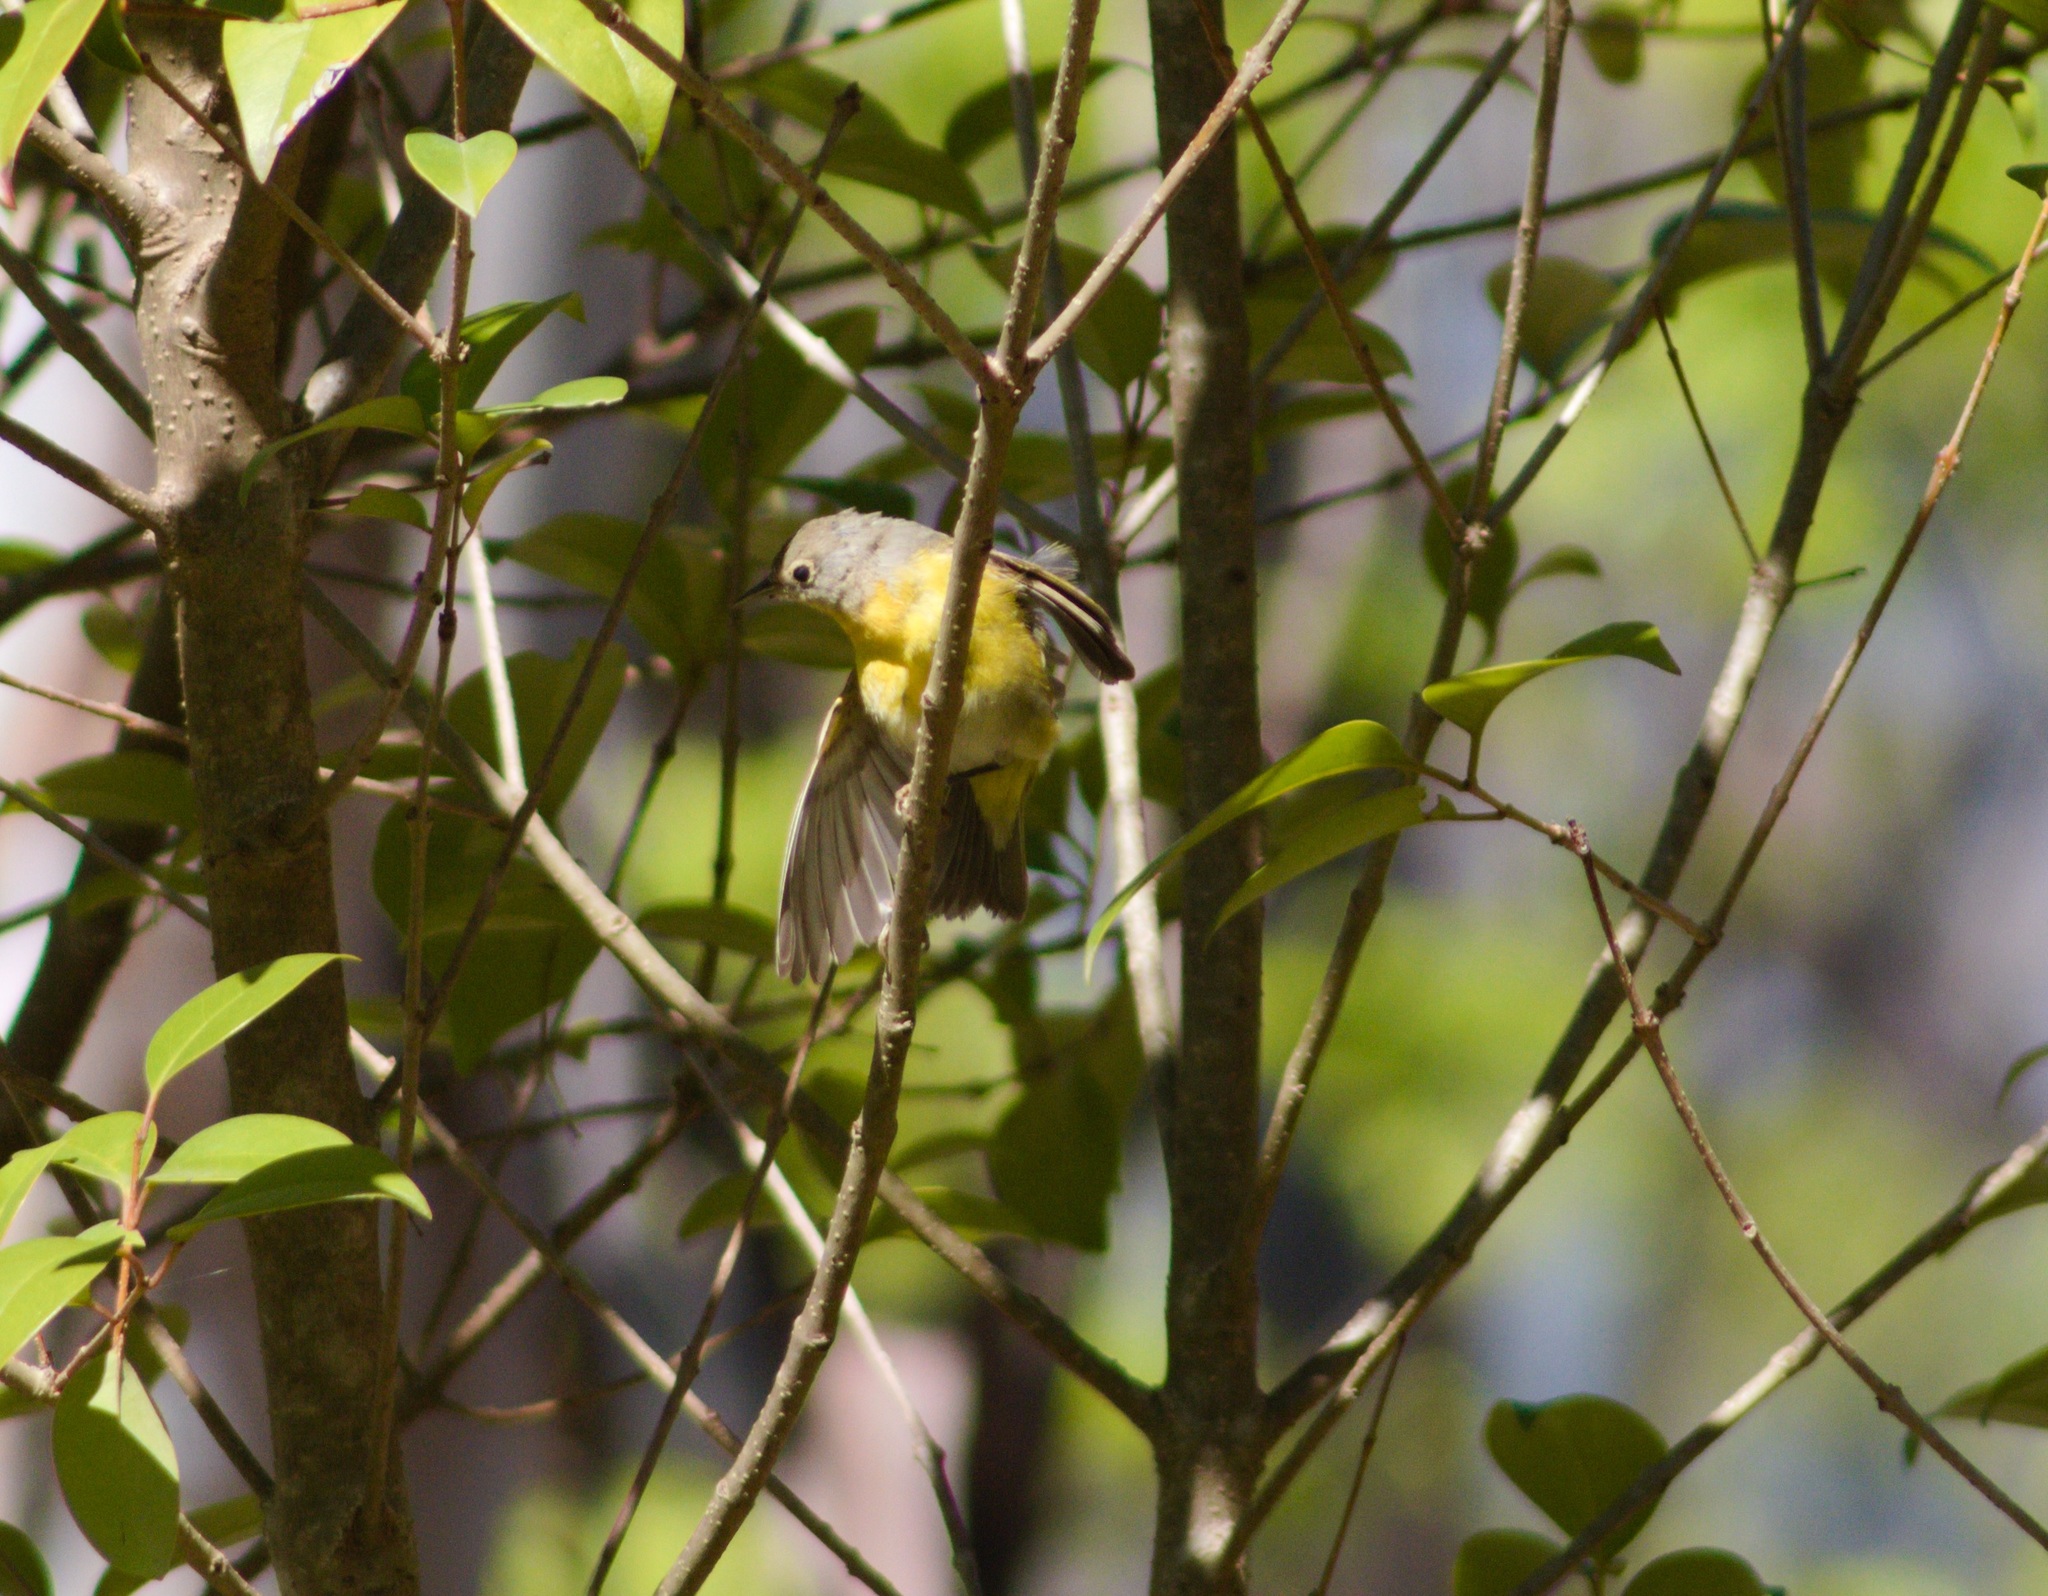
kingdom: Animalia
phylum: Chordata
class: Aves
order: Passeriformes
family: Parulidae
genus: Leiothlypis
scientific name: Leiothlypis ruficapilla
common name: Nashville warbler
